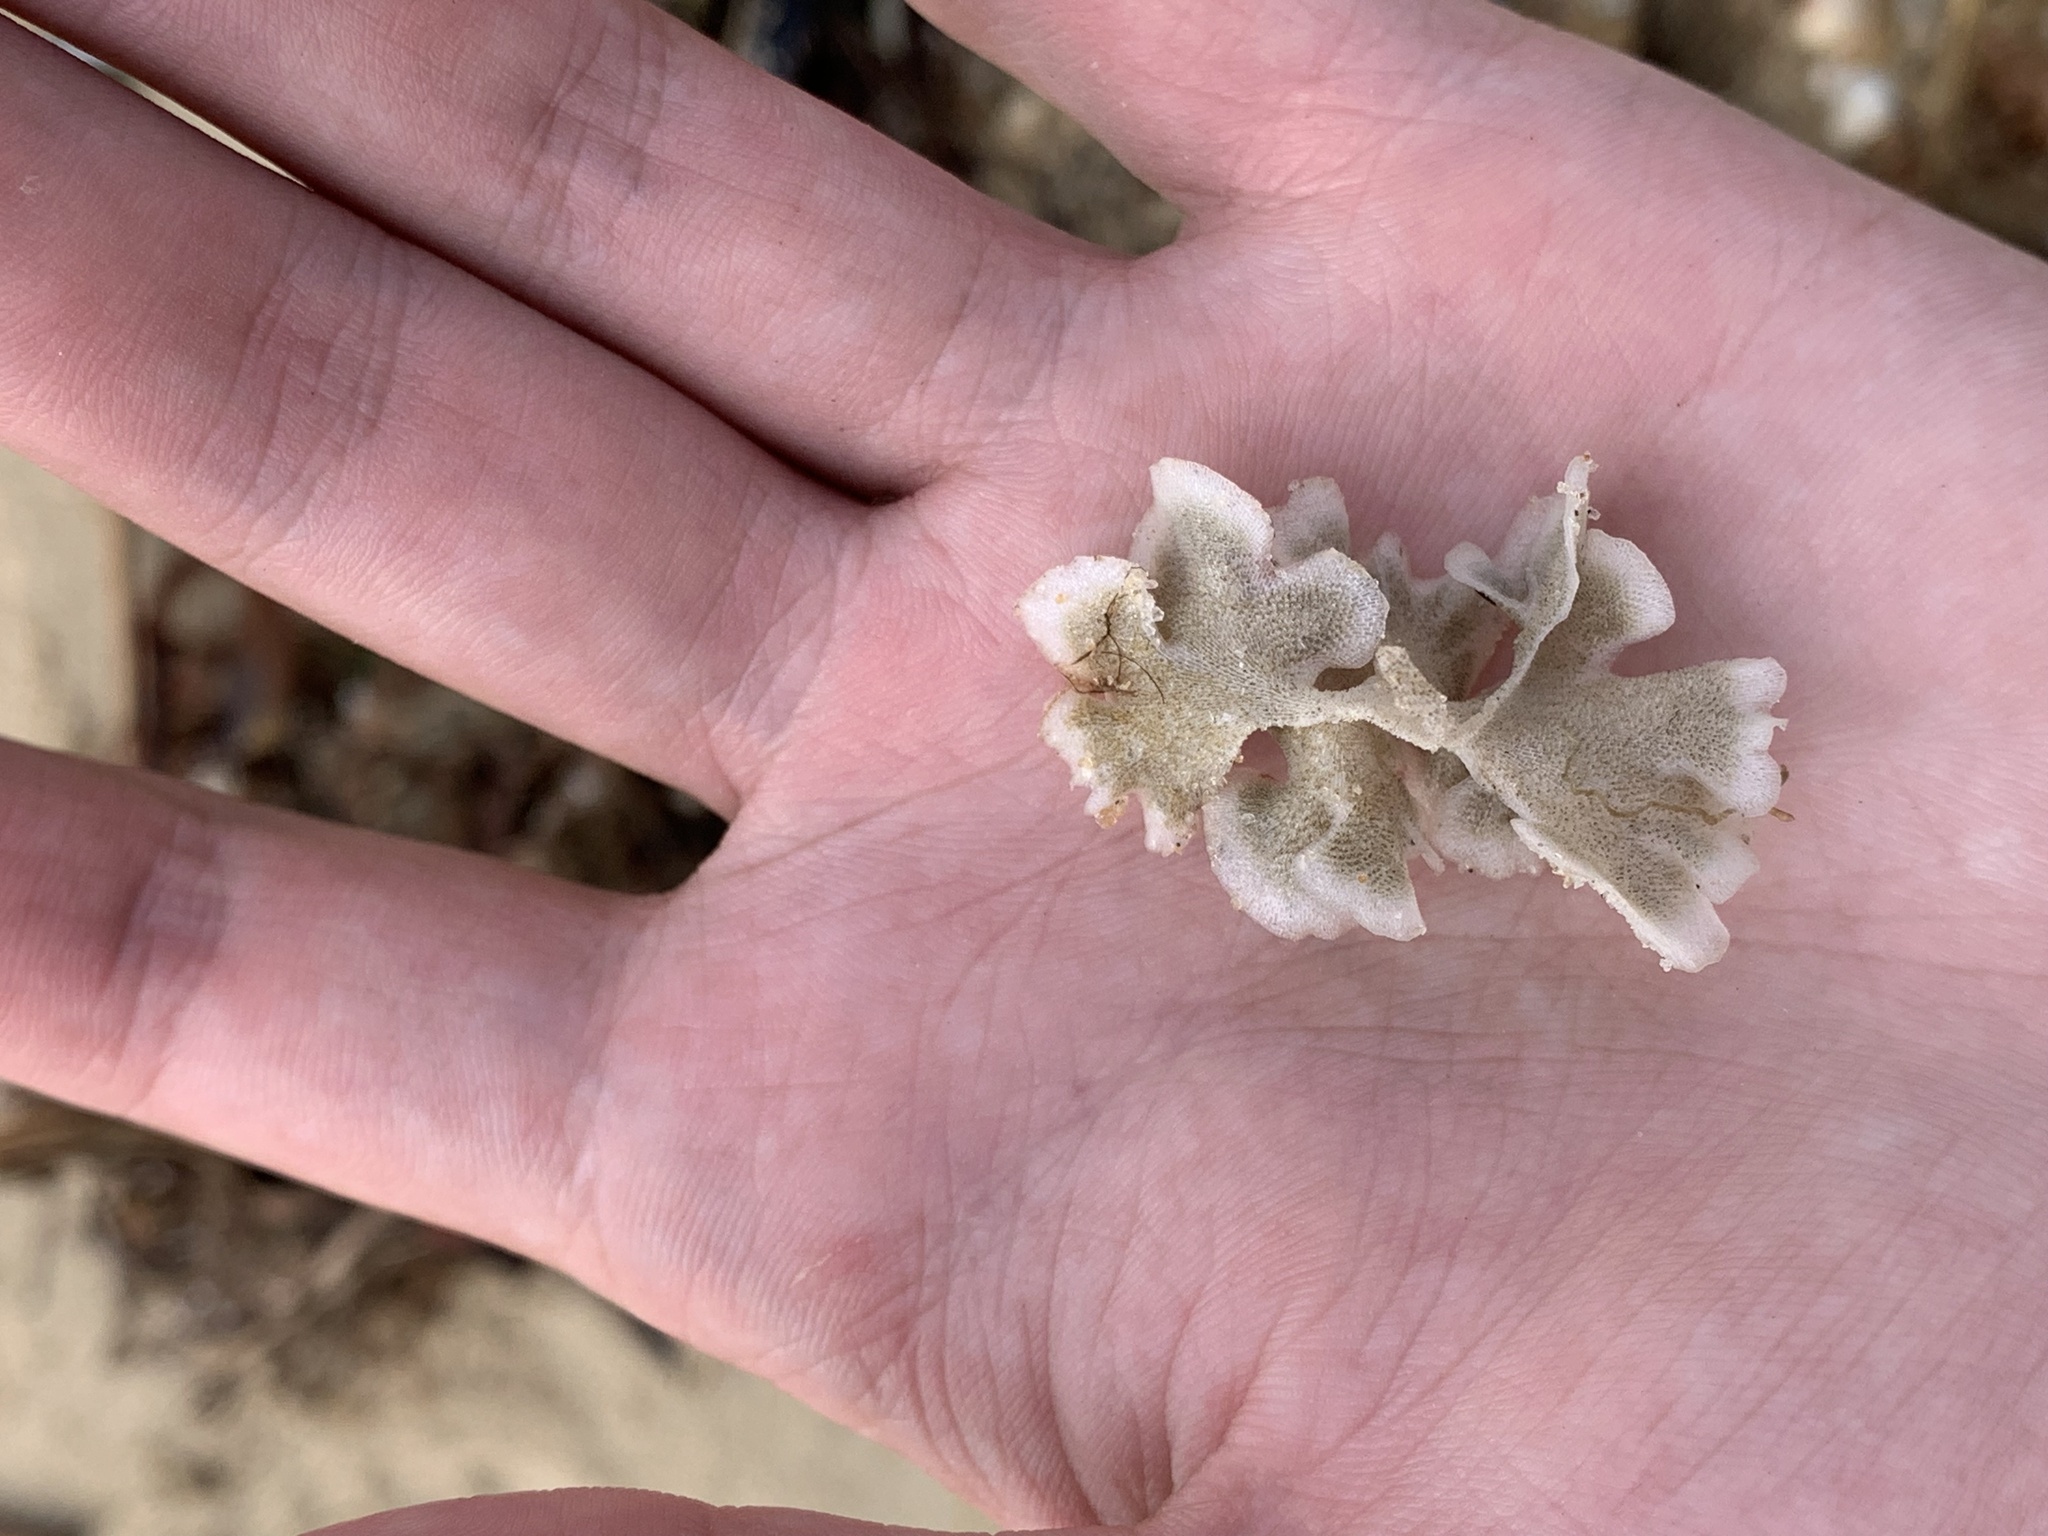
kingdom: Animalia
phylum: Bryozoa
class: Gymnolaemata
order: Cheilostomatida
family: Sinoflustridae
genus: Membraniporopsis
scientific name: Membraniporopsis tubigera
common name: Fouling bryozoan
